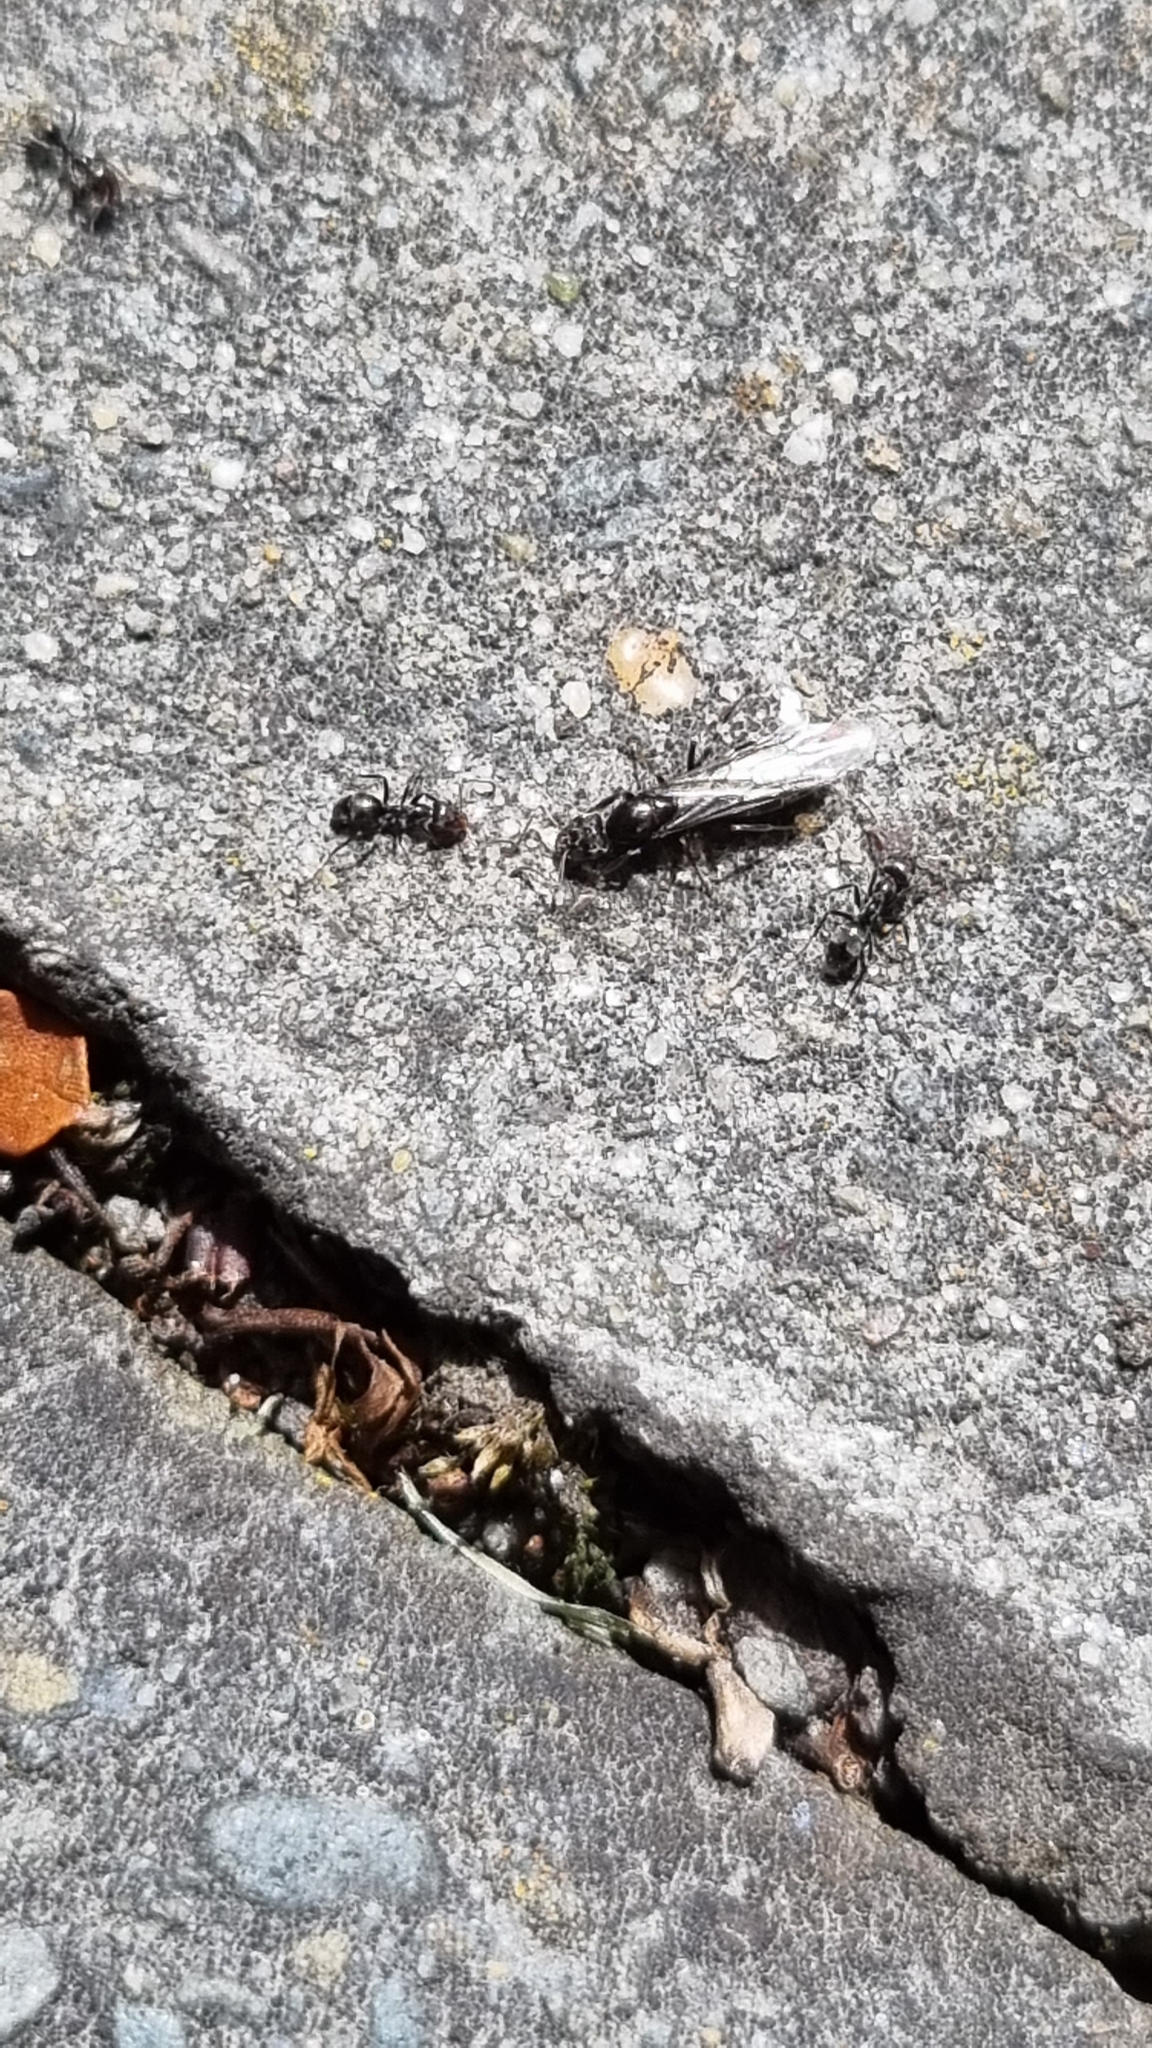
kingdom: Animalia
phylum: Arthropoda
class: Insecta
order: Hymenoptera
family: Formicidae
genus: Iridomyrmex
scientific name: Iridomyrmex suchieri
